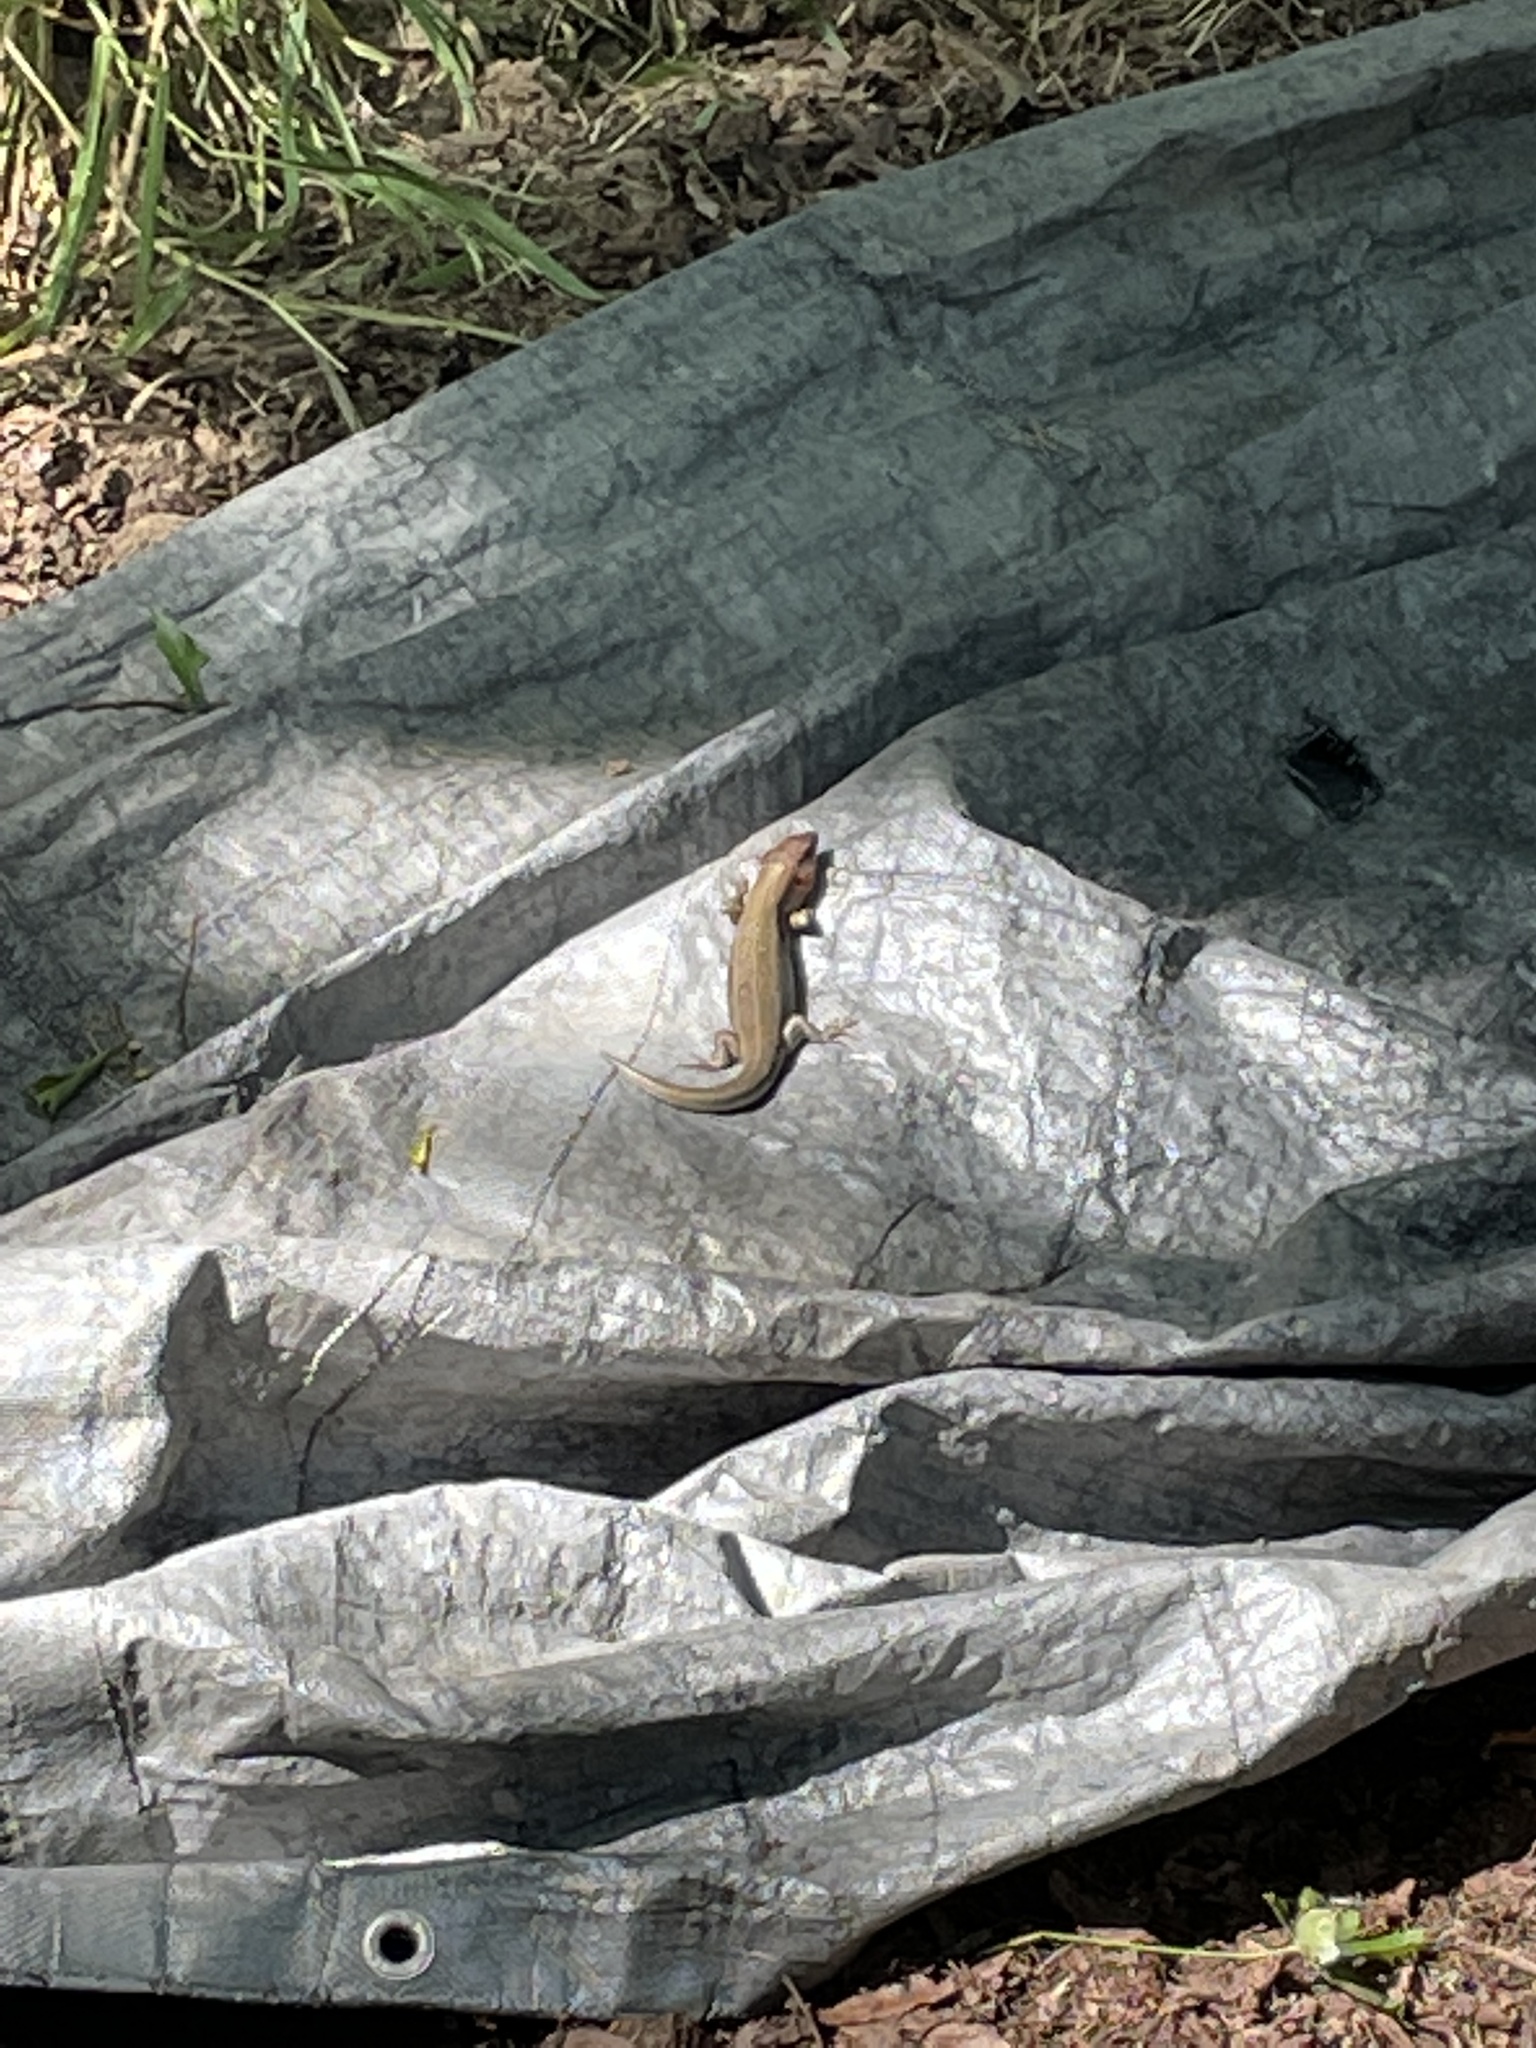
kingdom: Animalia
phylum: Chordata
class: Squamata
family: Scincidae
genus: Plestiodon
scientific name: Plestiodon laticeps
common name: Broadhead skink
